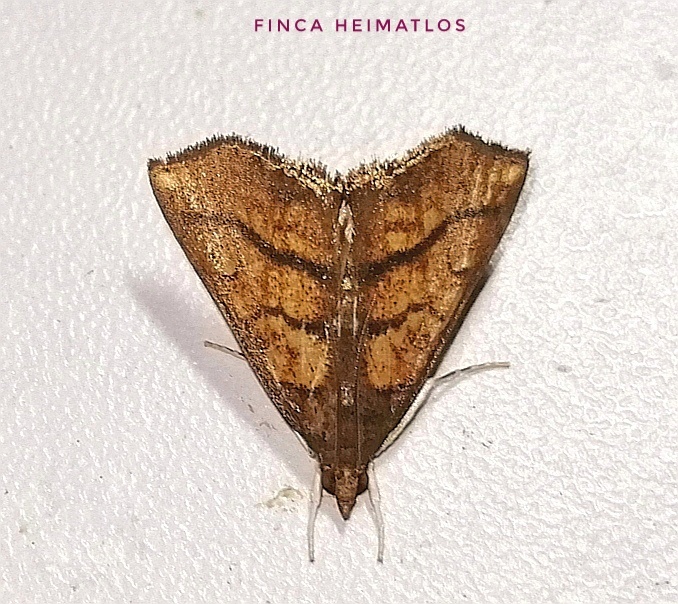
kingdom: Animalia
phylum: Arthropoda
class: Insecta
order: Lepidoptera
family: Crambidae
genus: Chilozela
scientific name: Chilozela trapeziana
